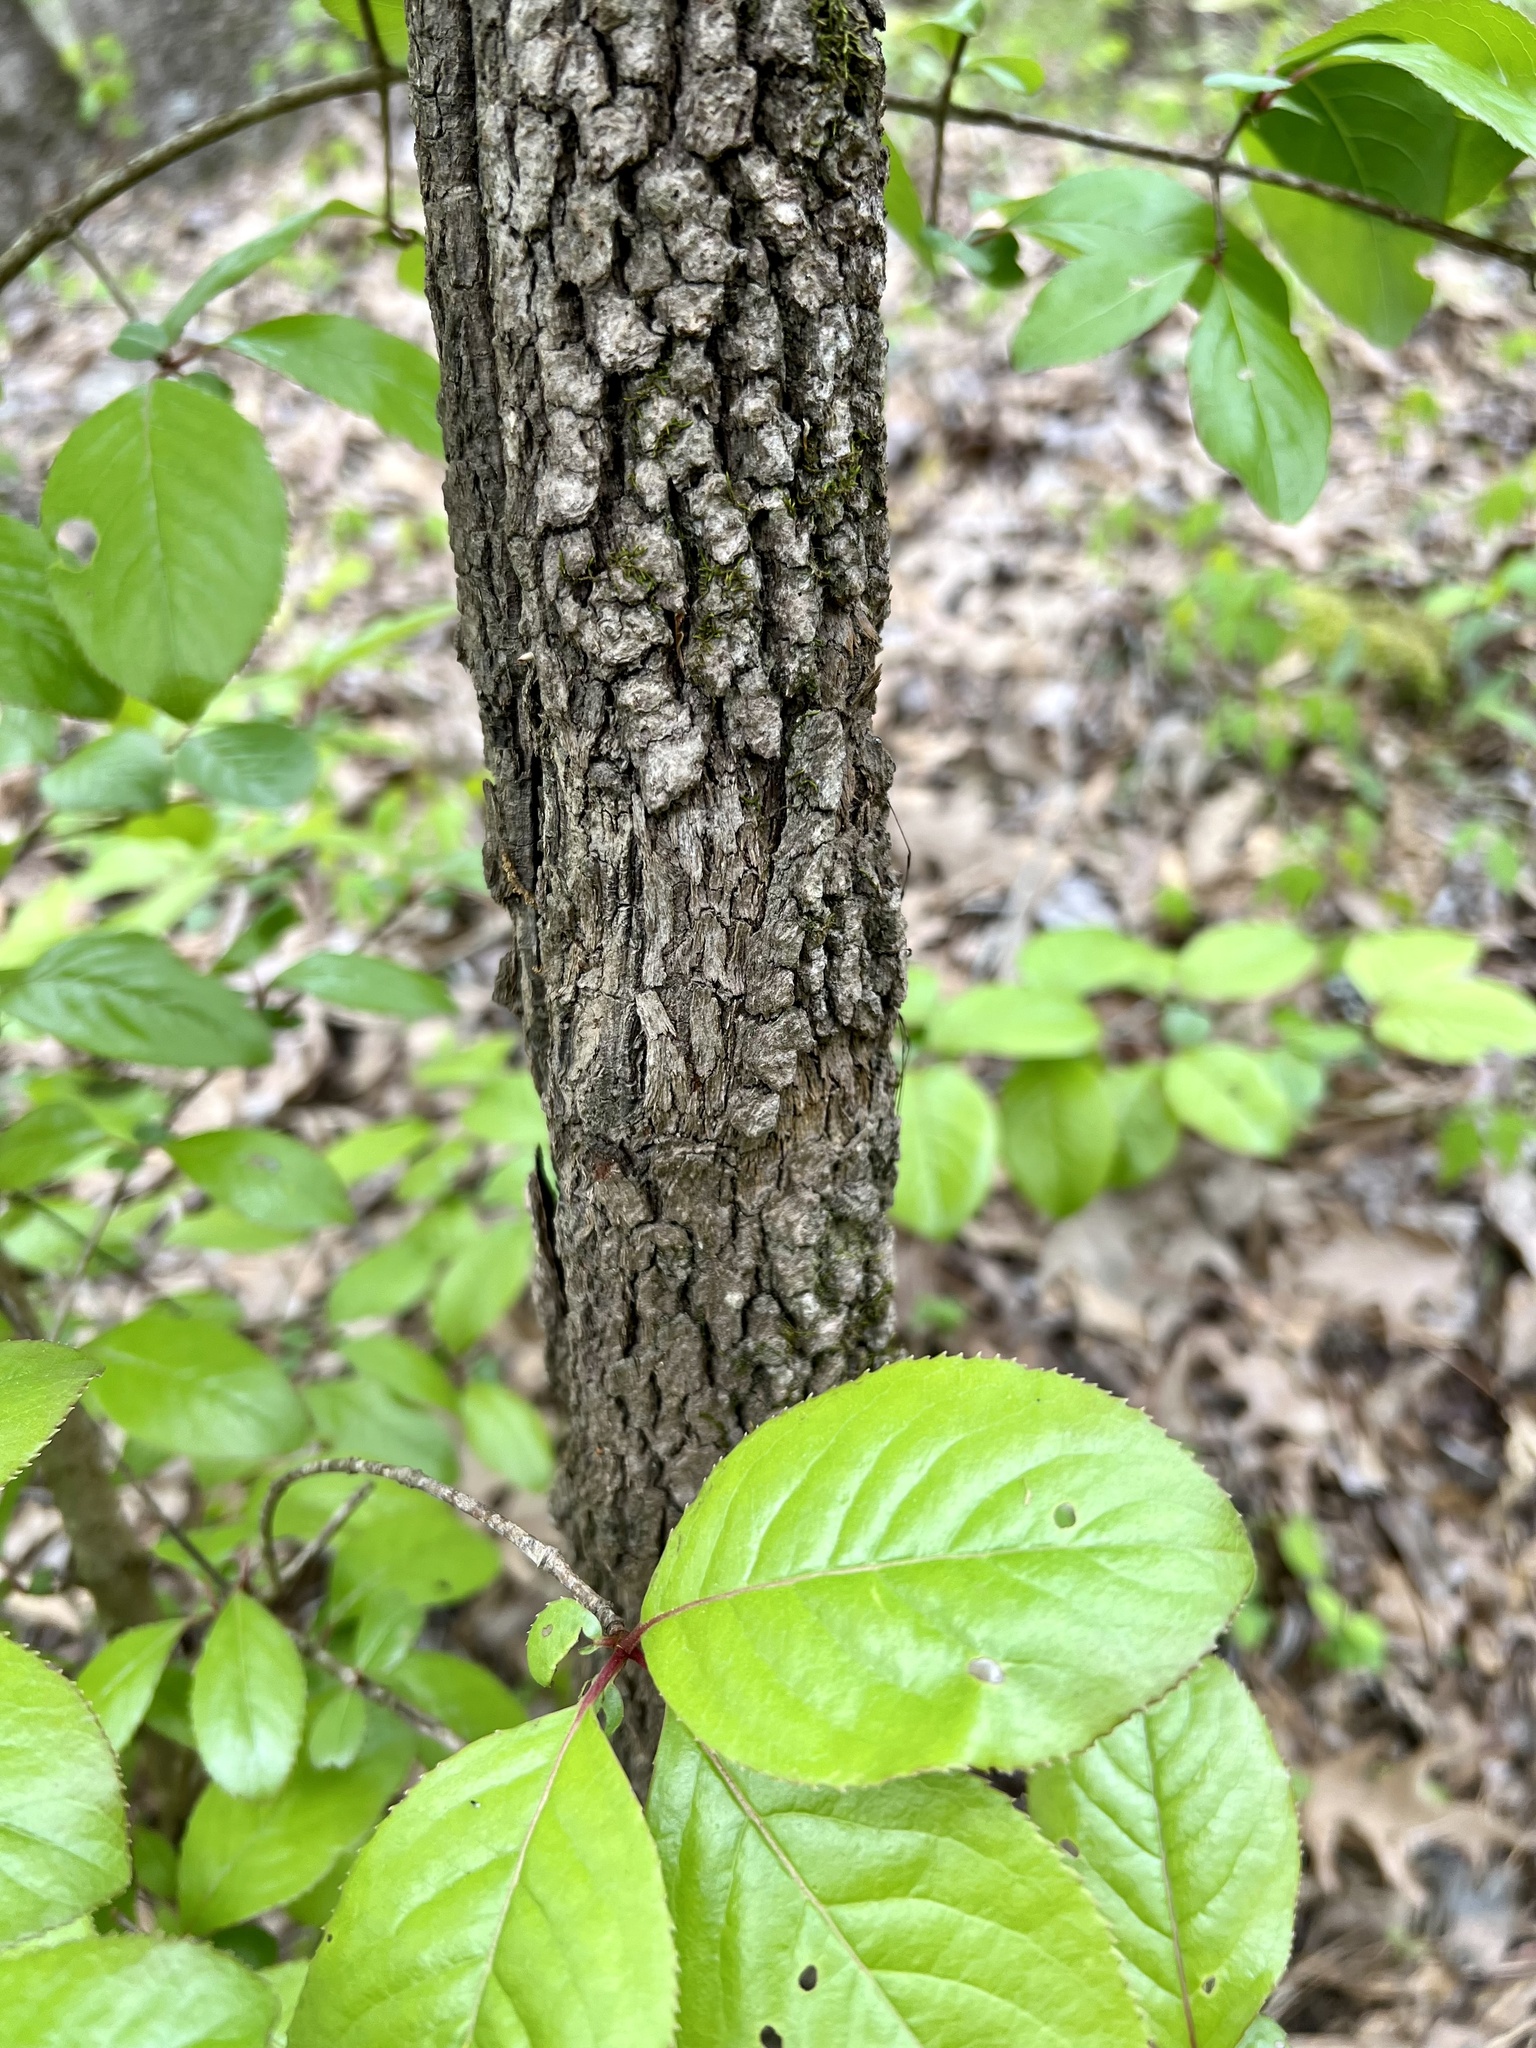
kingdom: Plantae
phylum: Tracheophyta
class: Magnoliopsida
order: Dipsacales
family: Viburnaceae
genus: Viburnum
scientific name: Viburnum rufidulum
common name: Blue haw
